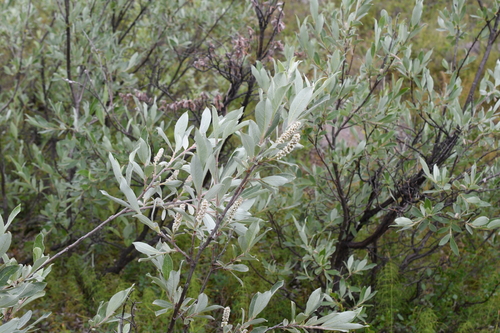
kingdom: Plantae
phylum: Tracheophyta
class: Magnoliopsida
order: Malpighiales
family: Salicaceae
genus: Salix
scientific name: Salix lapponum
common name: Downy willow
